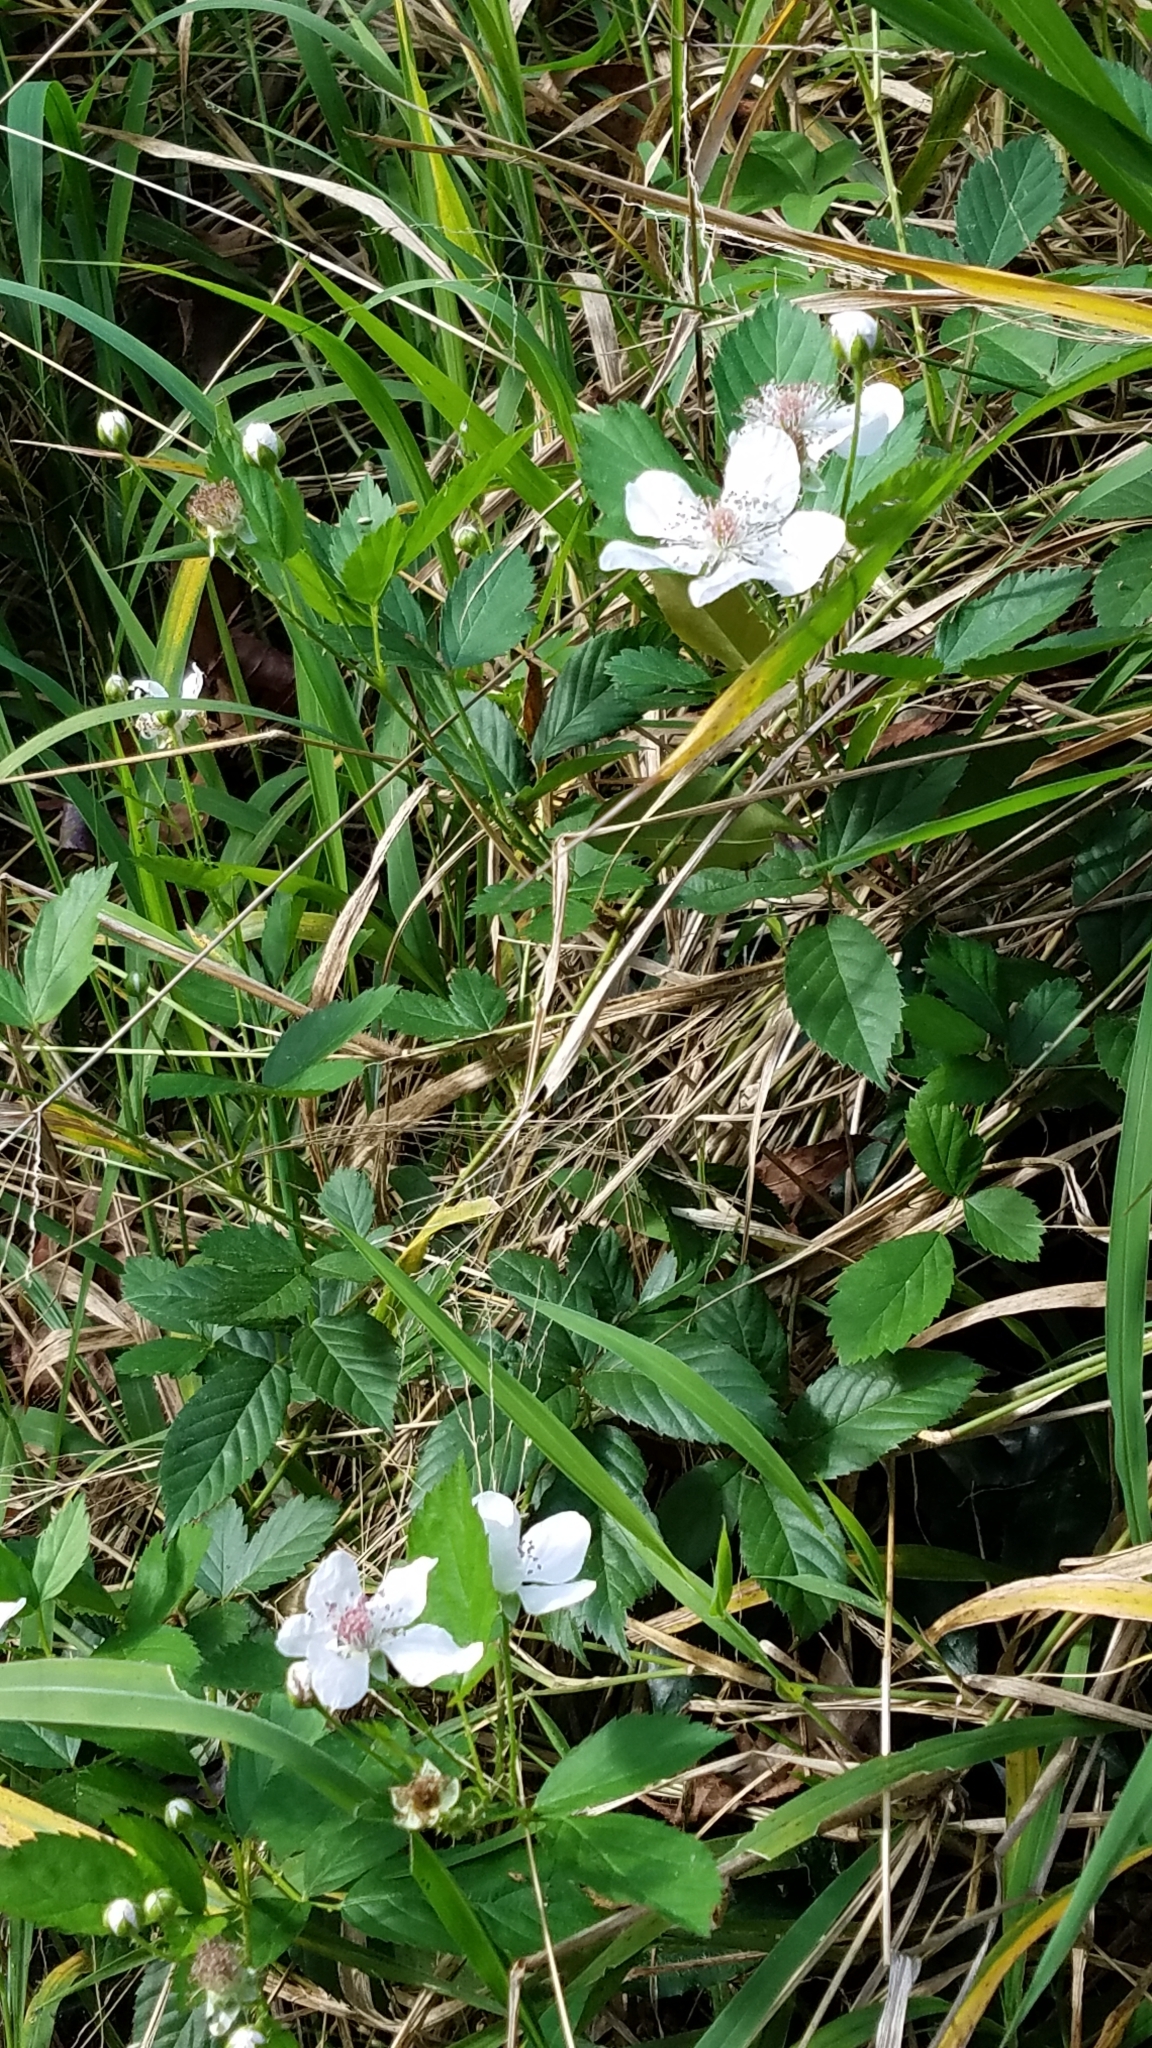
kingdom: Plantae
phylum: Tracheophyta
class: Magnoliopsida
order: Rosales
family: Rosaceae
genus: Rubus
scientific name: Rubus trivialis
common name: Southern dewberry
